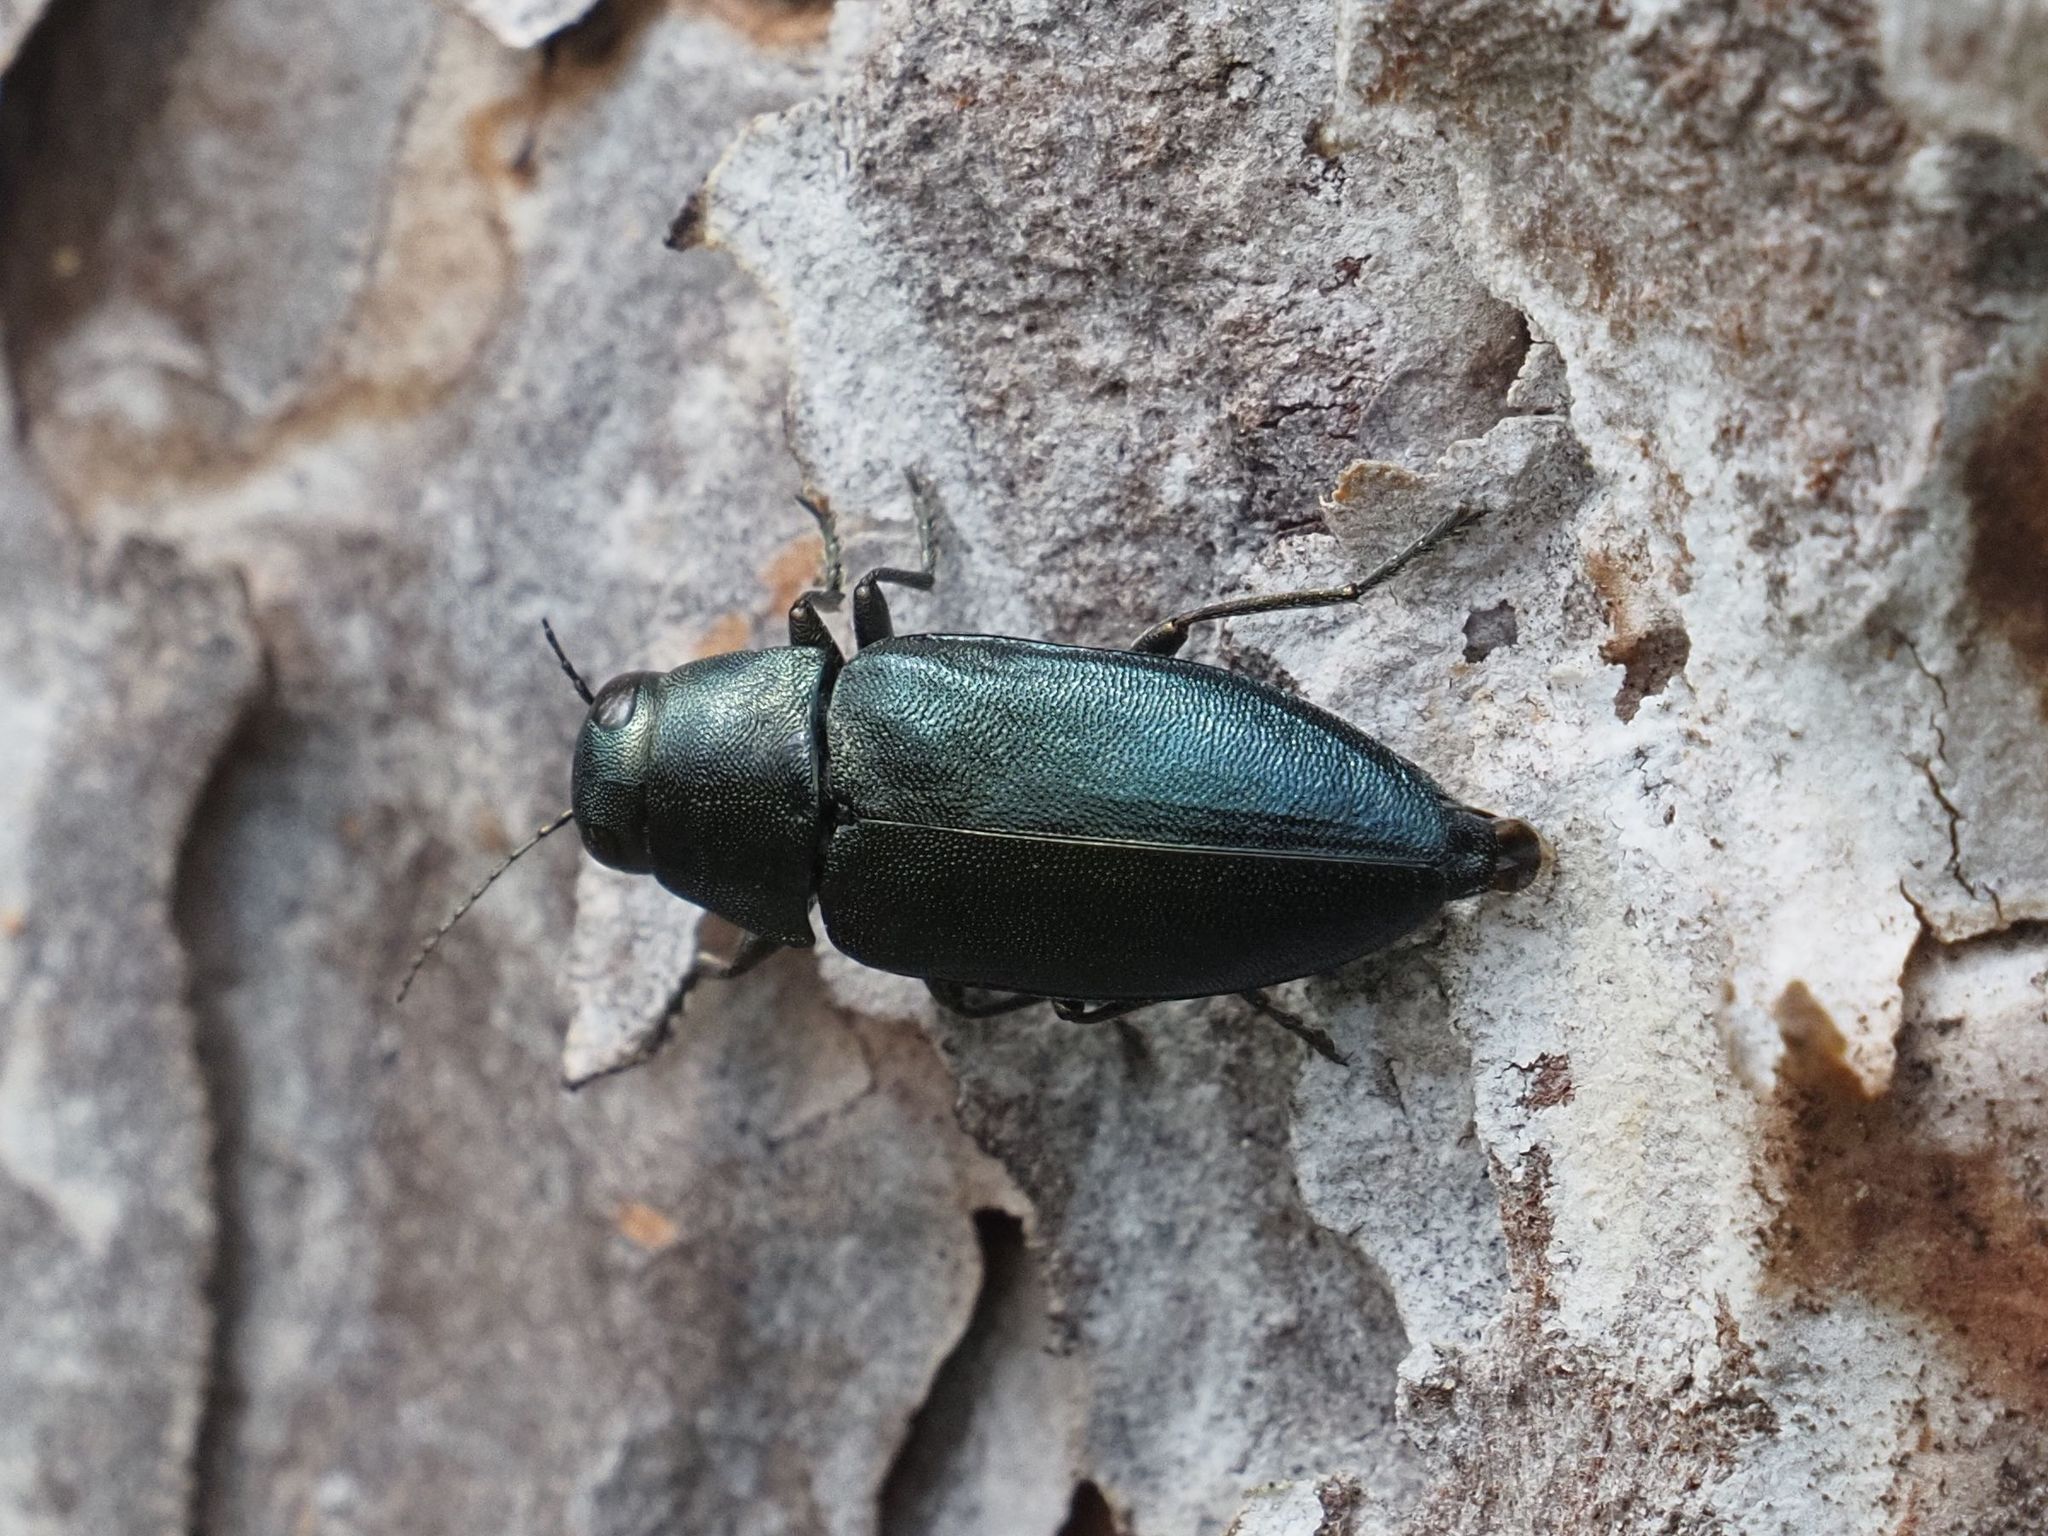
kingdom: Animalia
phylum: Arthropoda
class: Insecta
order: Coleoptera
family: Buprestidae
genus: Phaenops
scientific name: Phaenops cyanea
